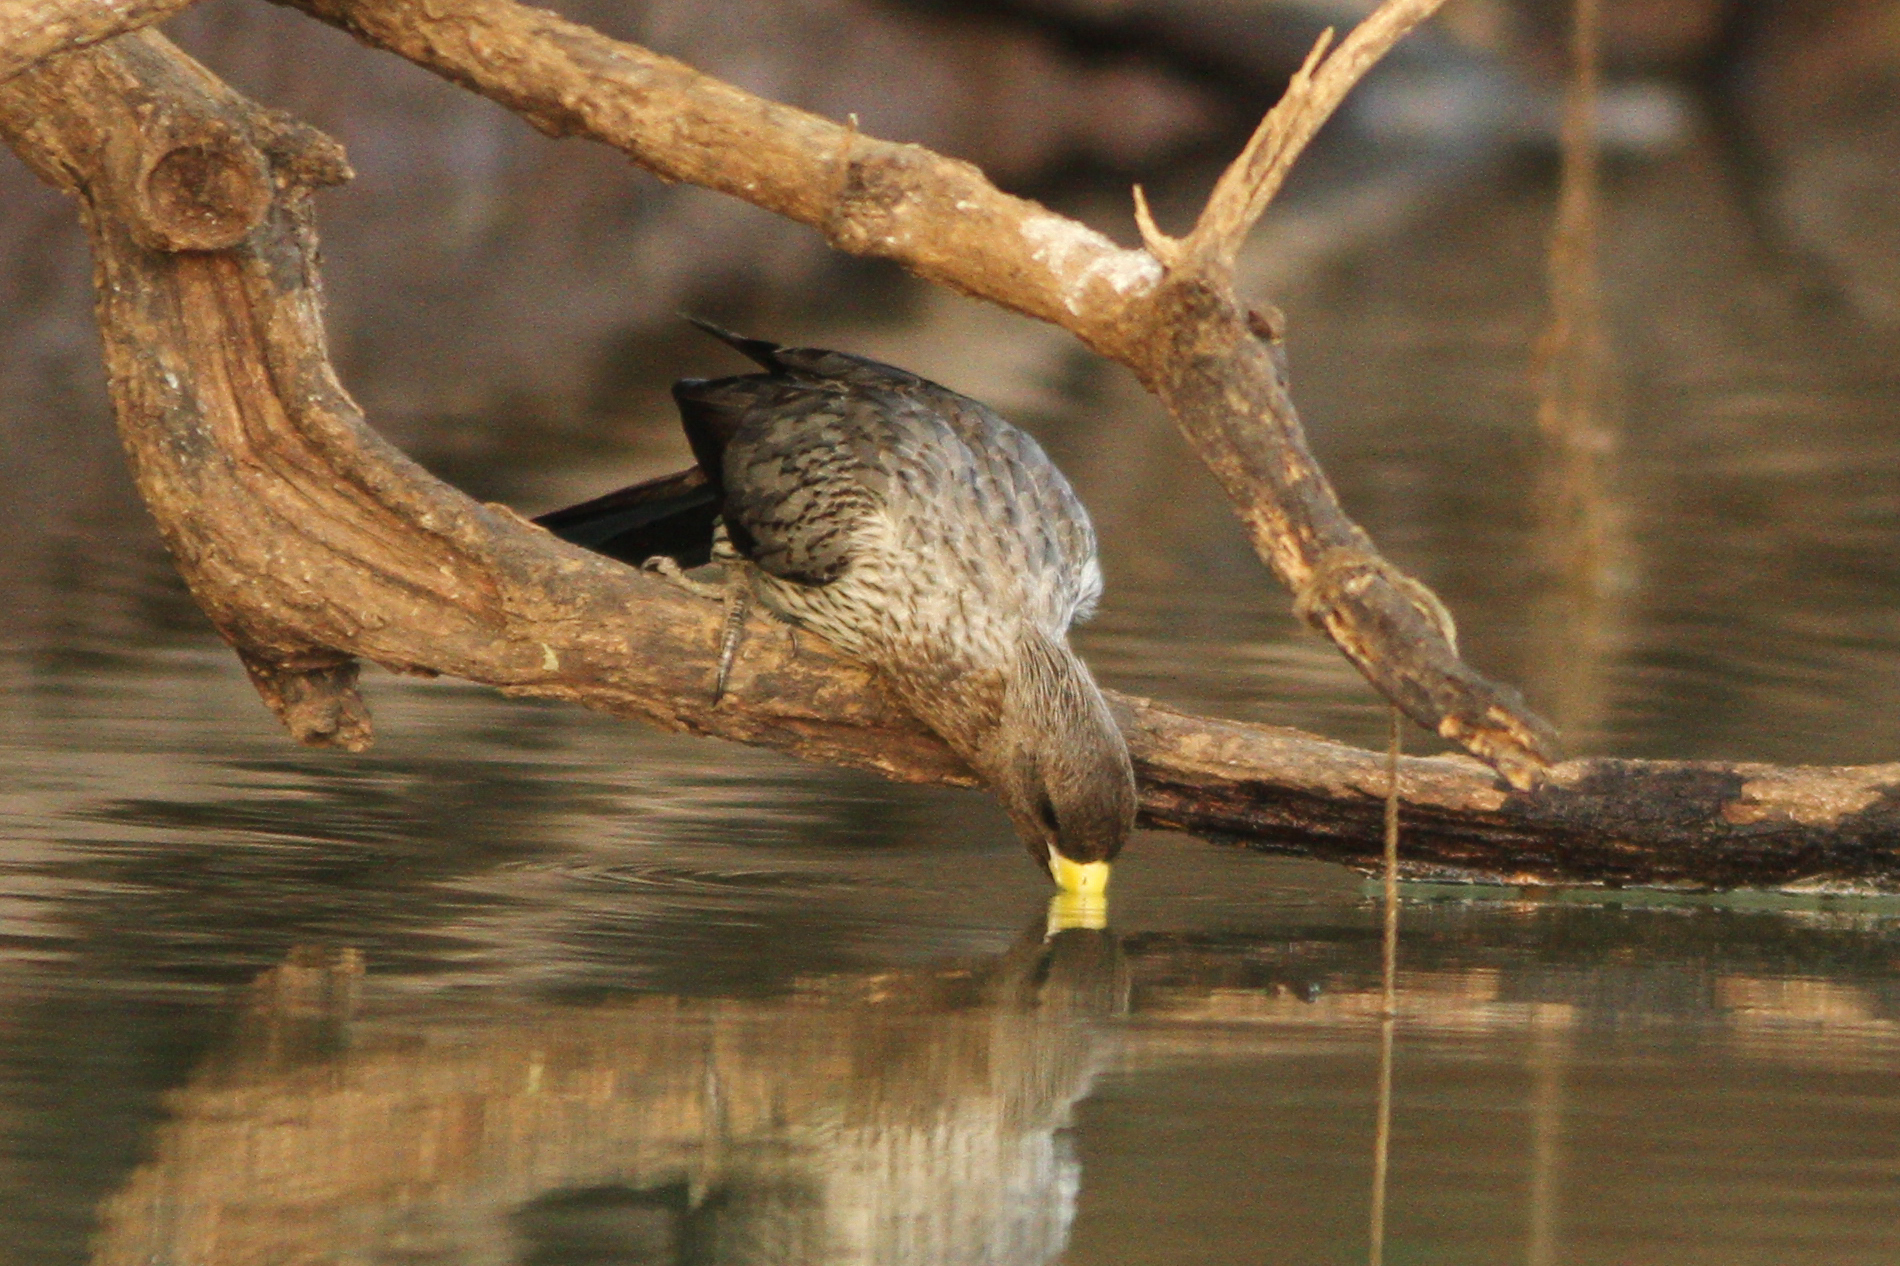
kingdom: Animalia
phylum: Chordata
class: Aves
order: Musophagiformes
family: Musophagidae
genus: Crinifer
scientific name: Crinifer piscator
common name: Western plantain-eater
